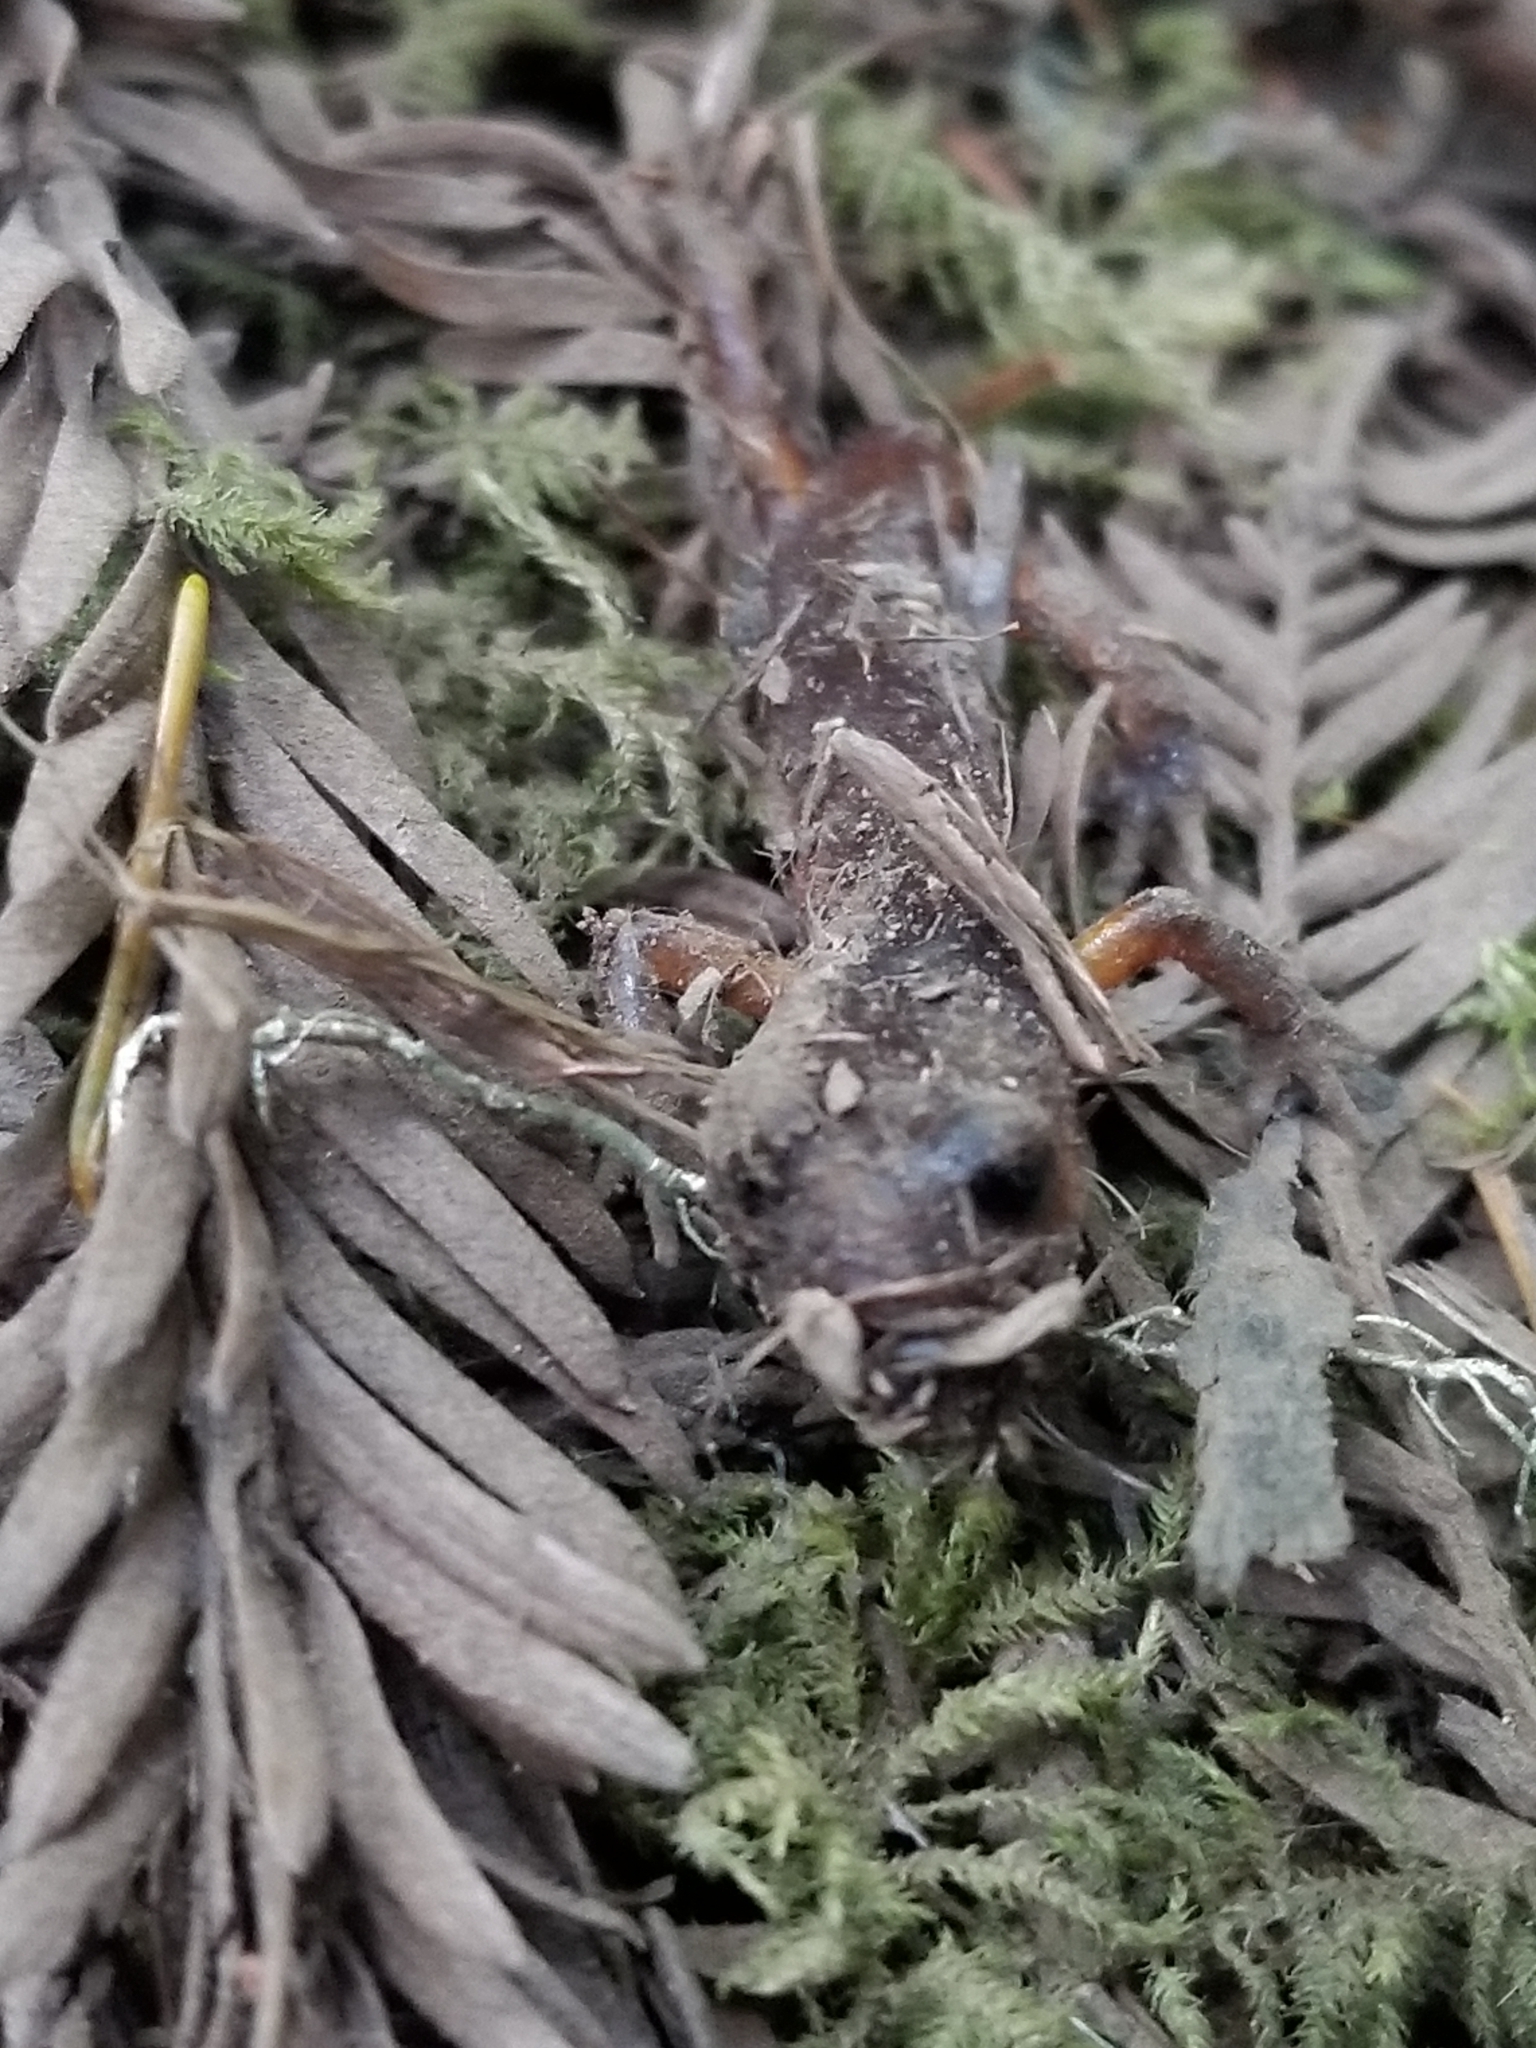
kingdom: Animalia
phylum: Chordata
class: Amphibia
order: Caudata
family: Plethodontidae
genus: Ensatina
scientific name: Ensatina eschscholtzii
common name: Ensatina
